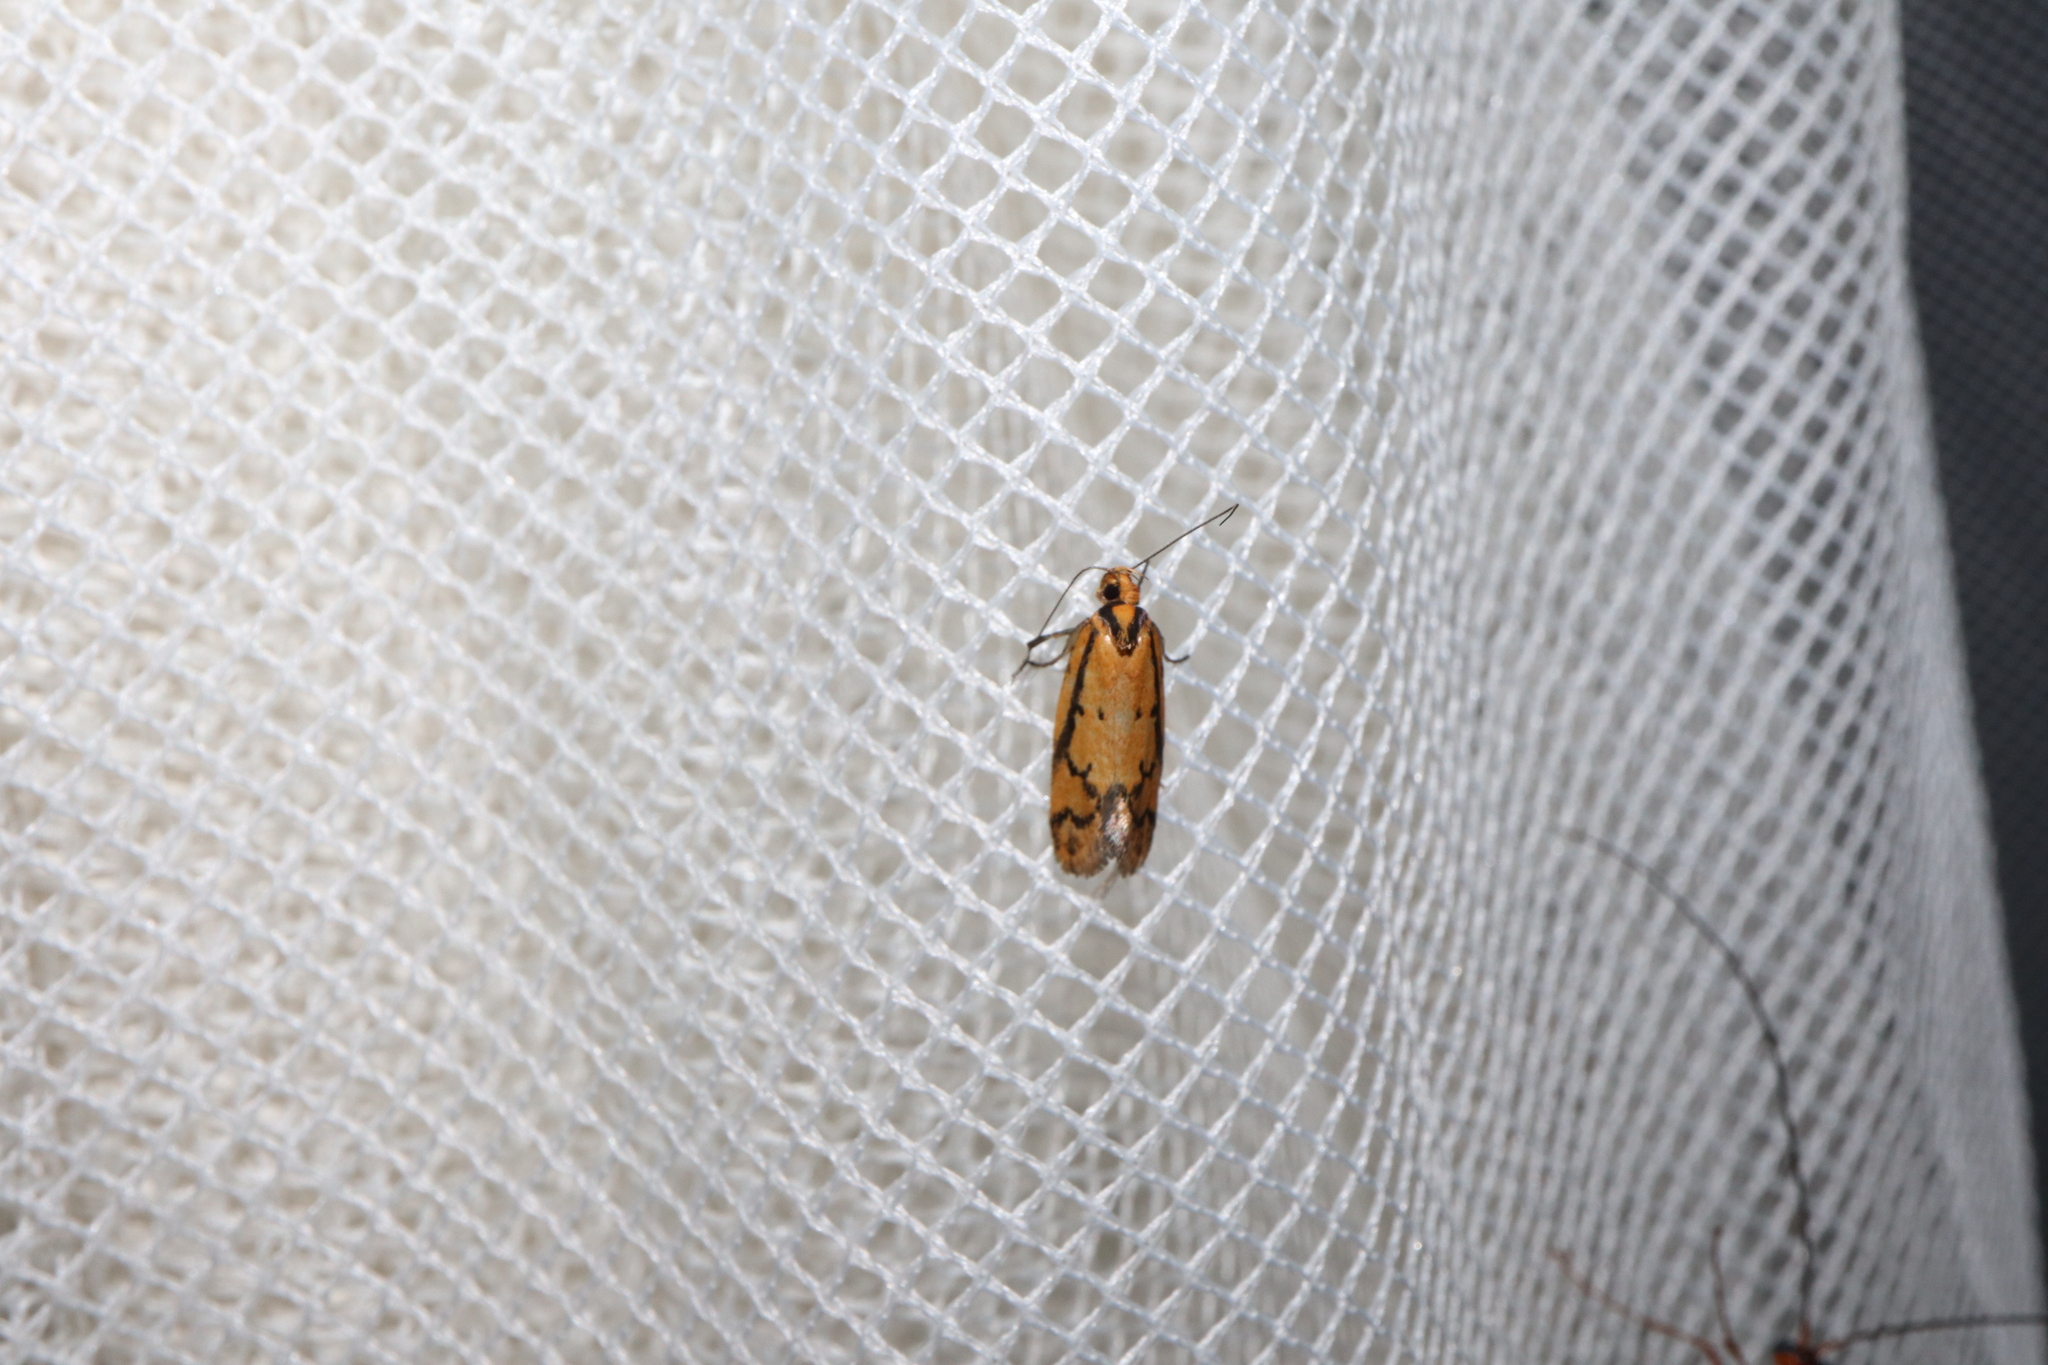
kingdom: Animalia
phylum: Arthropoda
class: Insecta
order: Lepidoptera
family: Oecophoridae
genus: Philobota
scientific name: Philobota xanthastis
